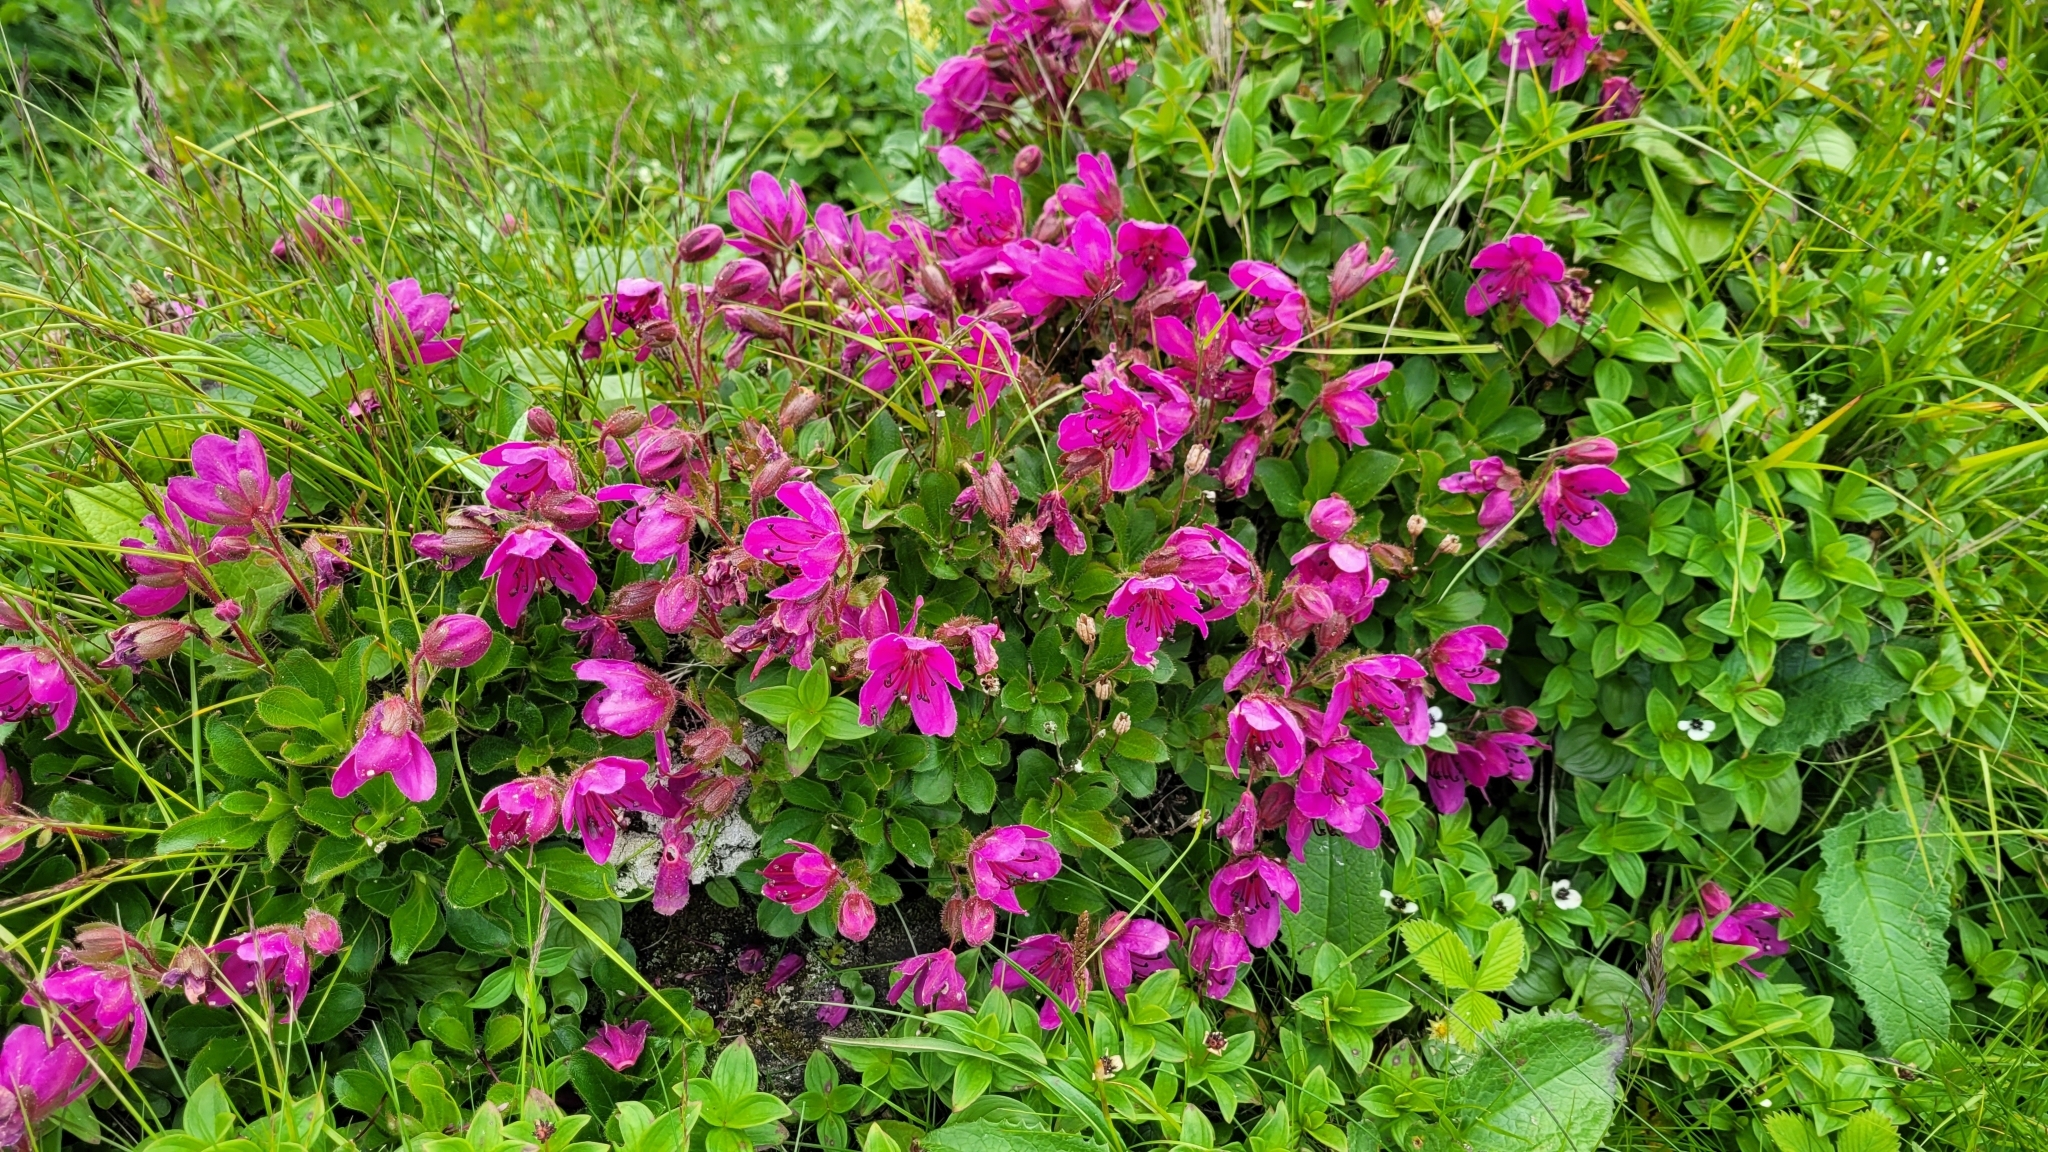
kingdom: Plantae
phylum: Tracheophyta
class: Magnoliopsida
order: Ericales
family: Ericaceae
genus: Rhododendron
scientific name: Rhododendron camtschaticum
